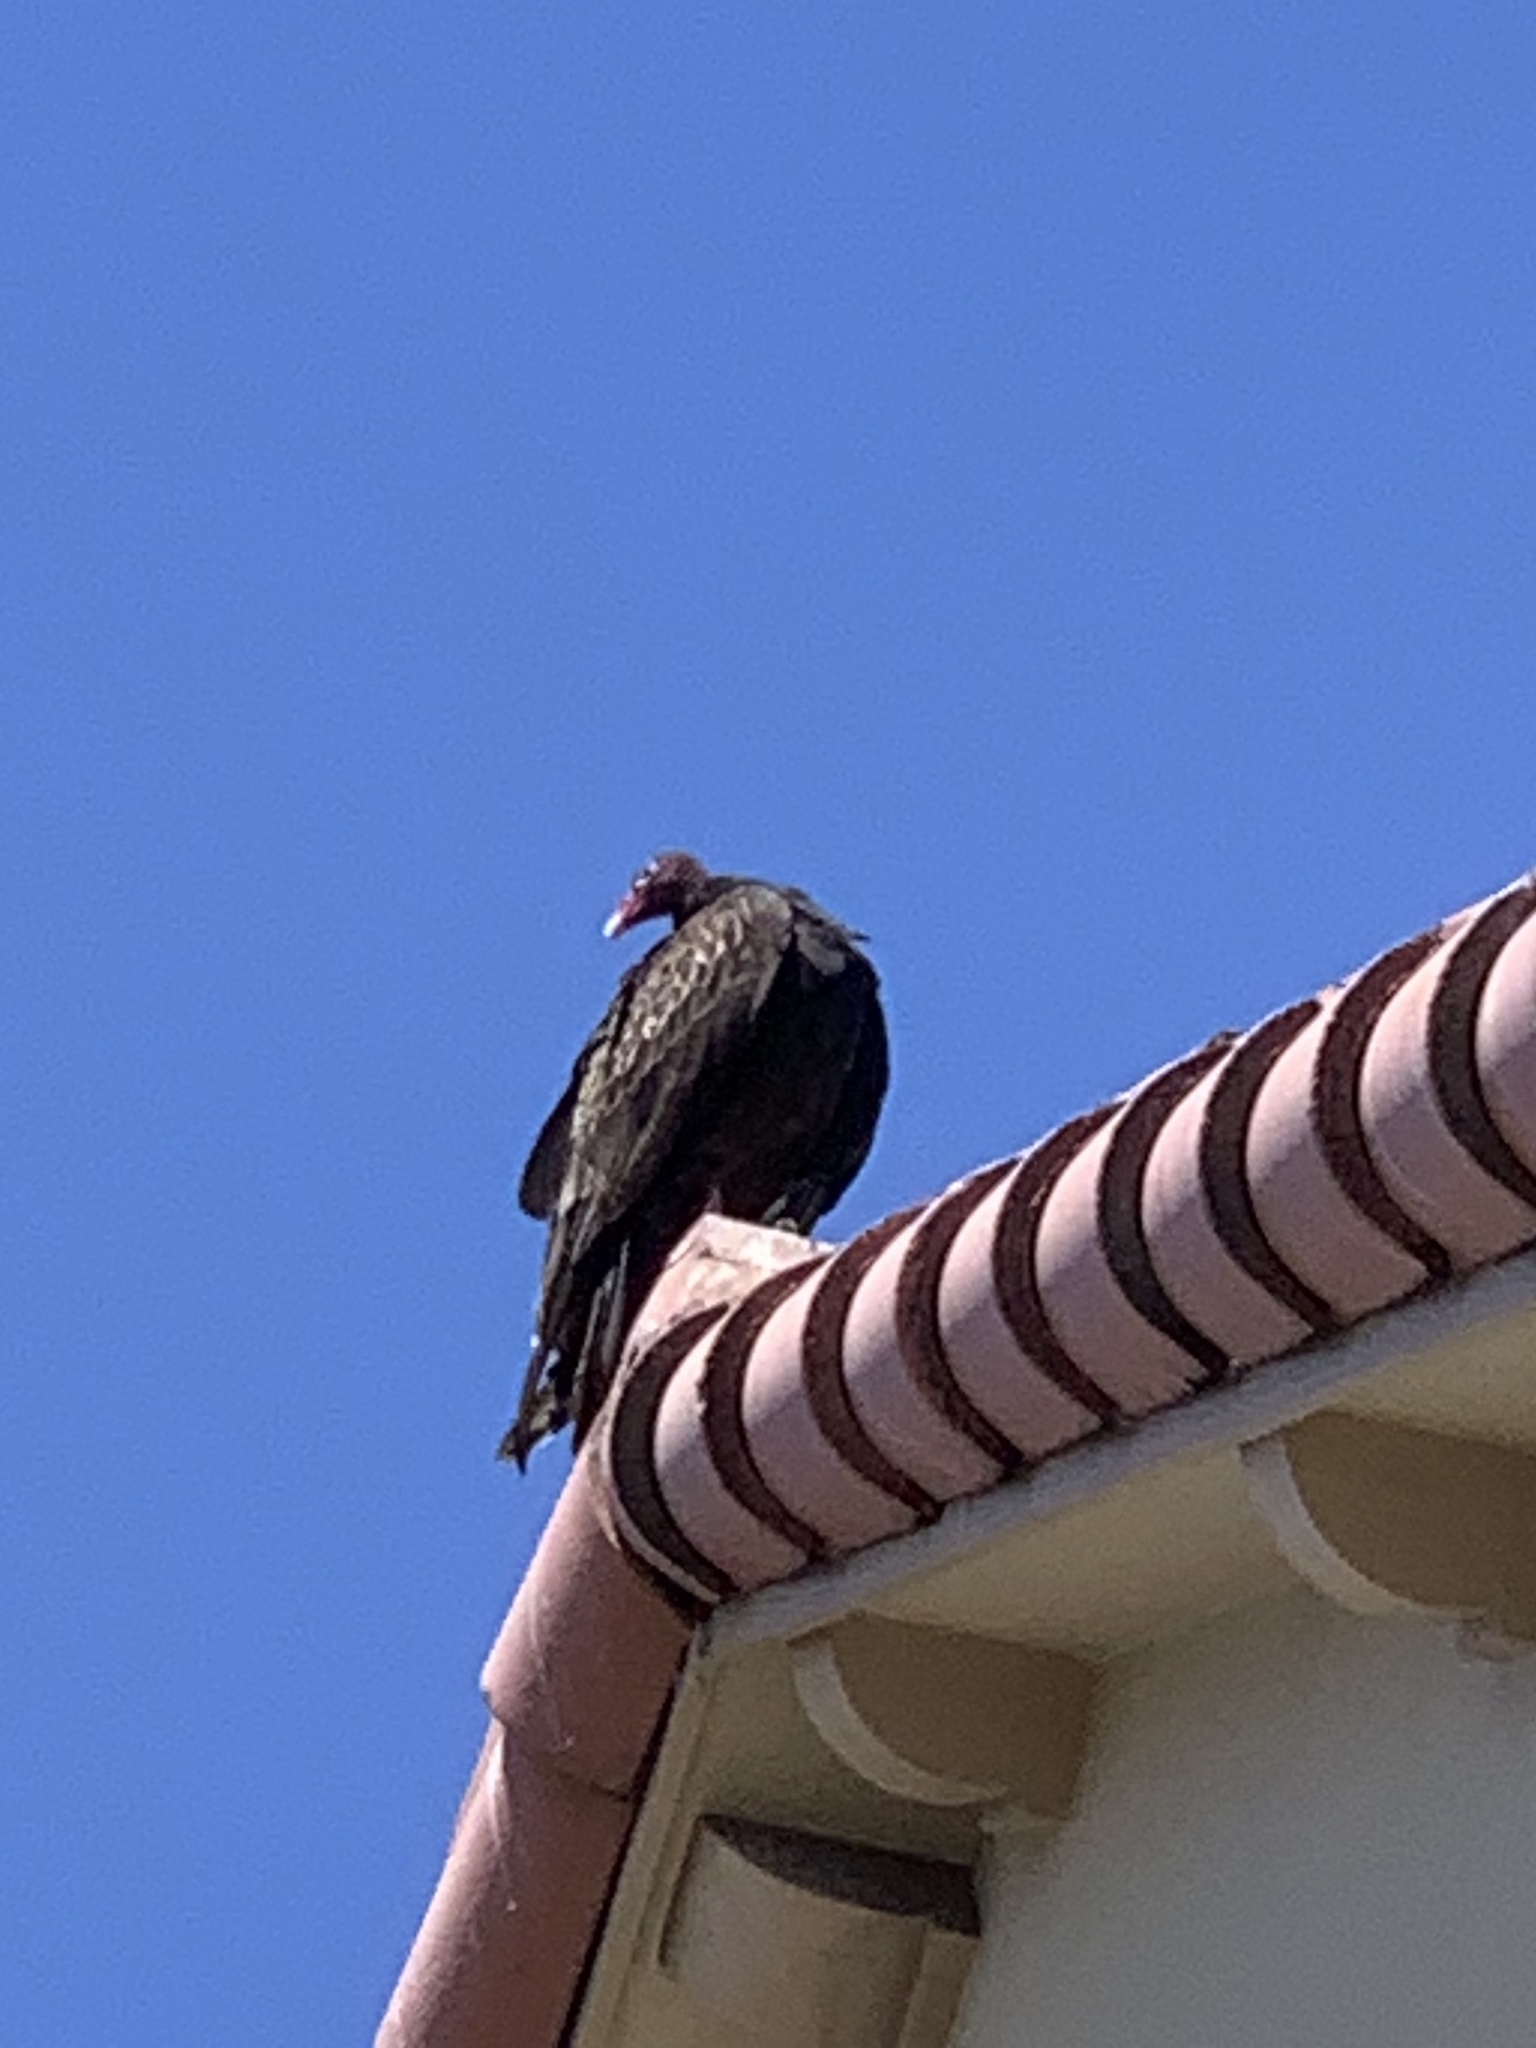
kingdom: Animalia
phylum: Chordata
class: Aves
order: Accipitriformes
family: Cathartidae
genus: Cathartes
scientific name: Cathartes aura
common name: Turkey vulture
